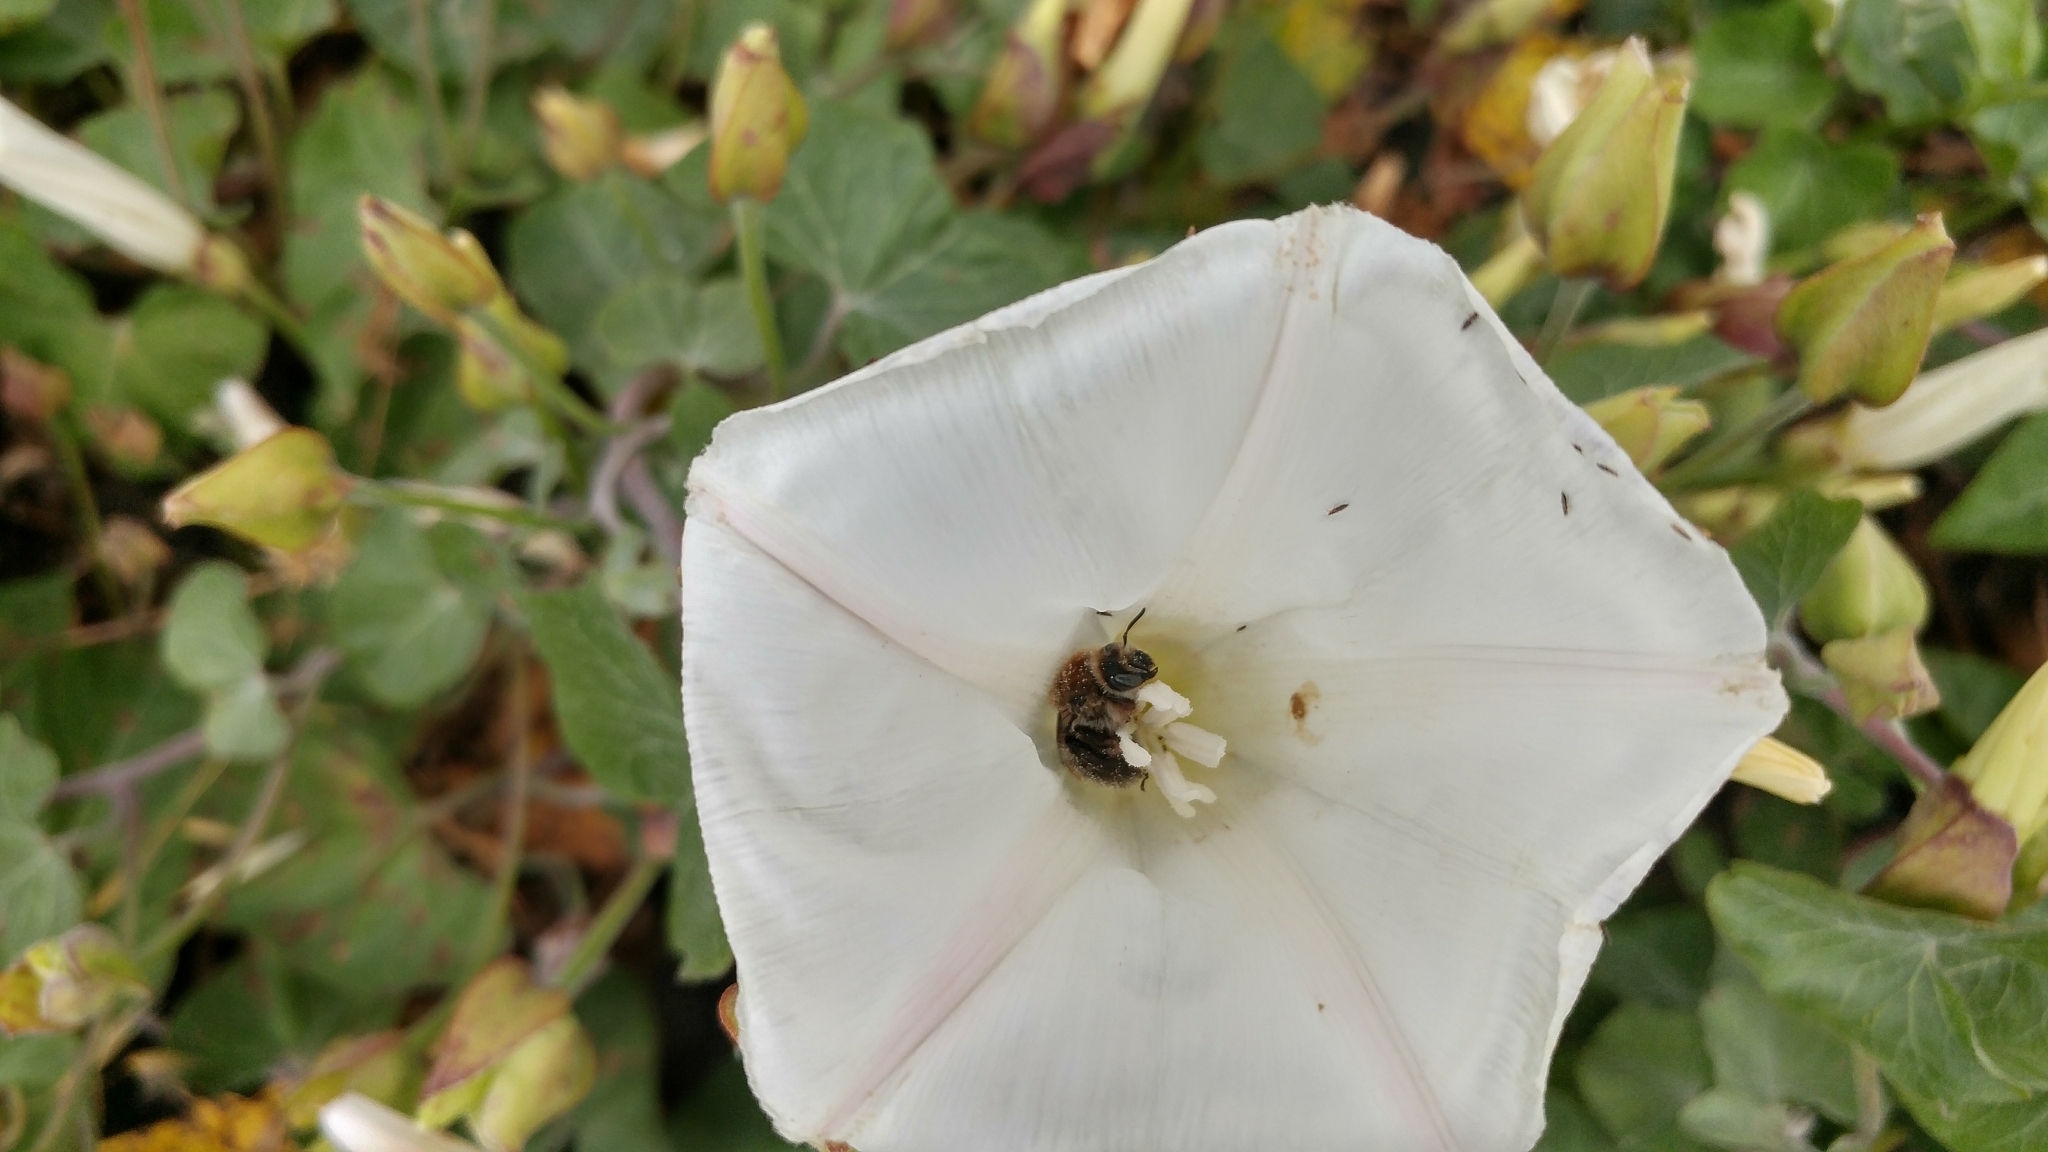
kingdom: Animalia
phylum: Arthropoda
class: Insecta
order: Hymenoptera
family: Apidae
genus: Diadasia
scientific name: Diadasia bituberculata
